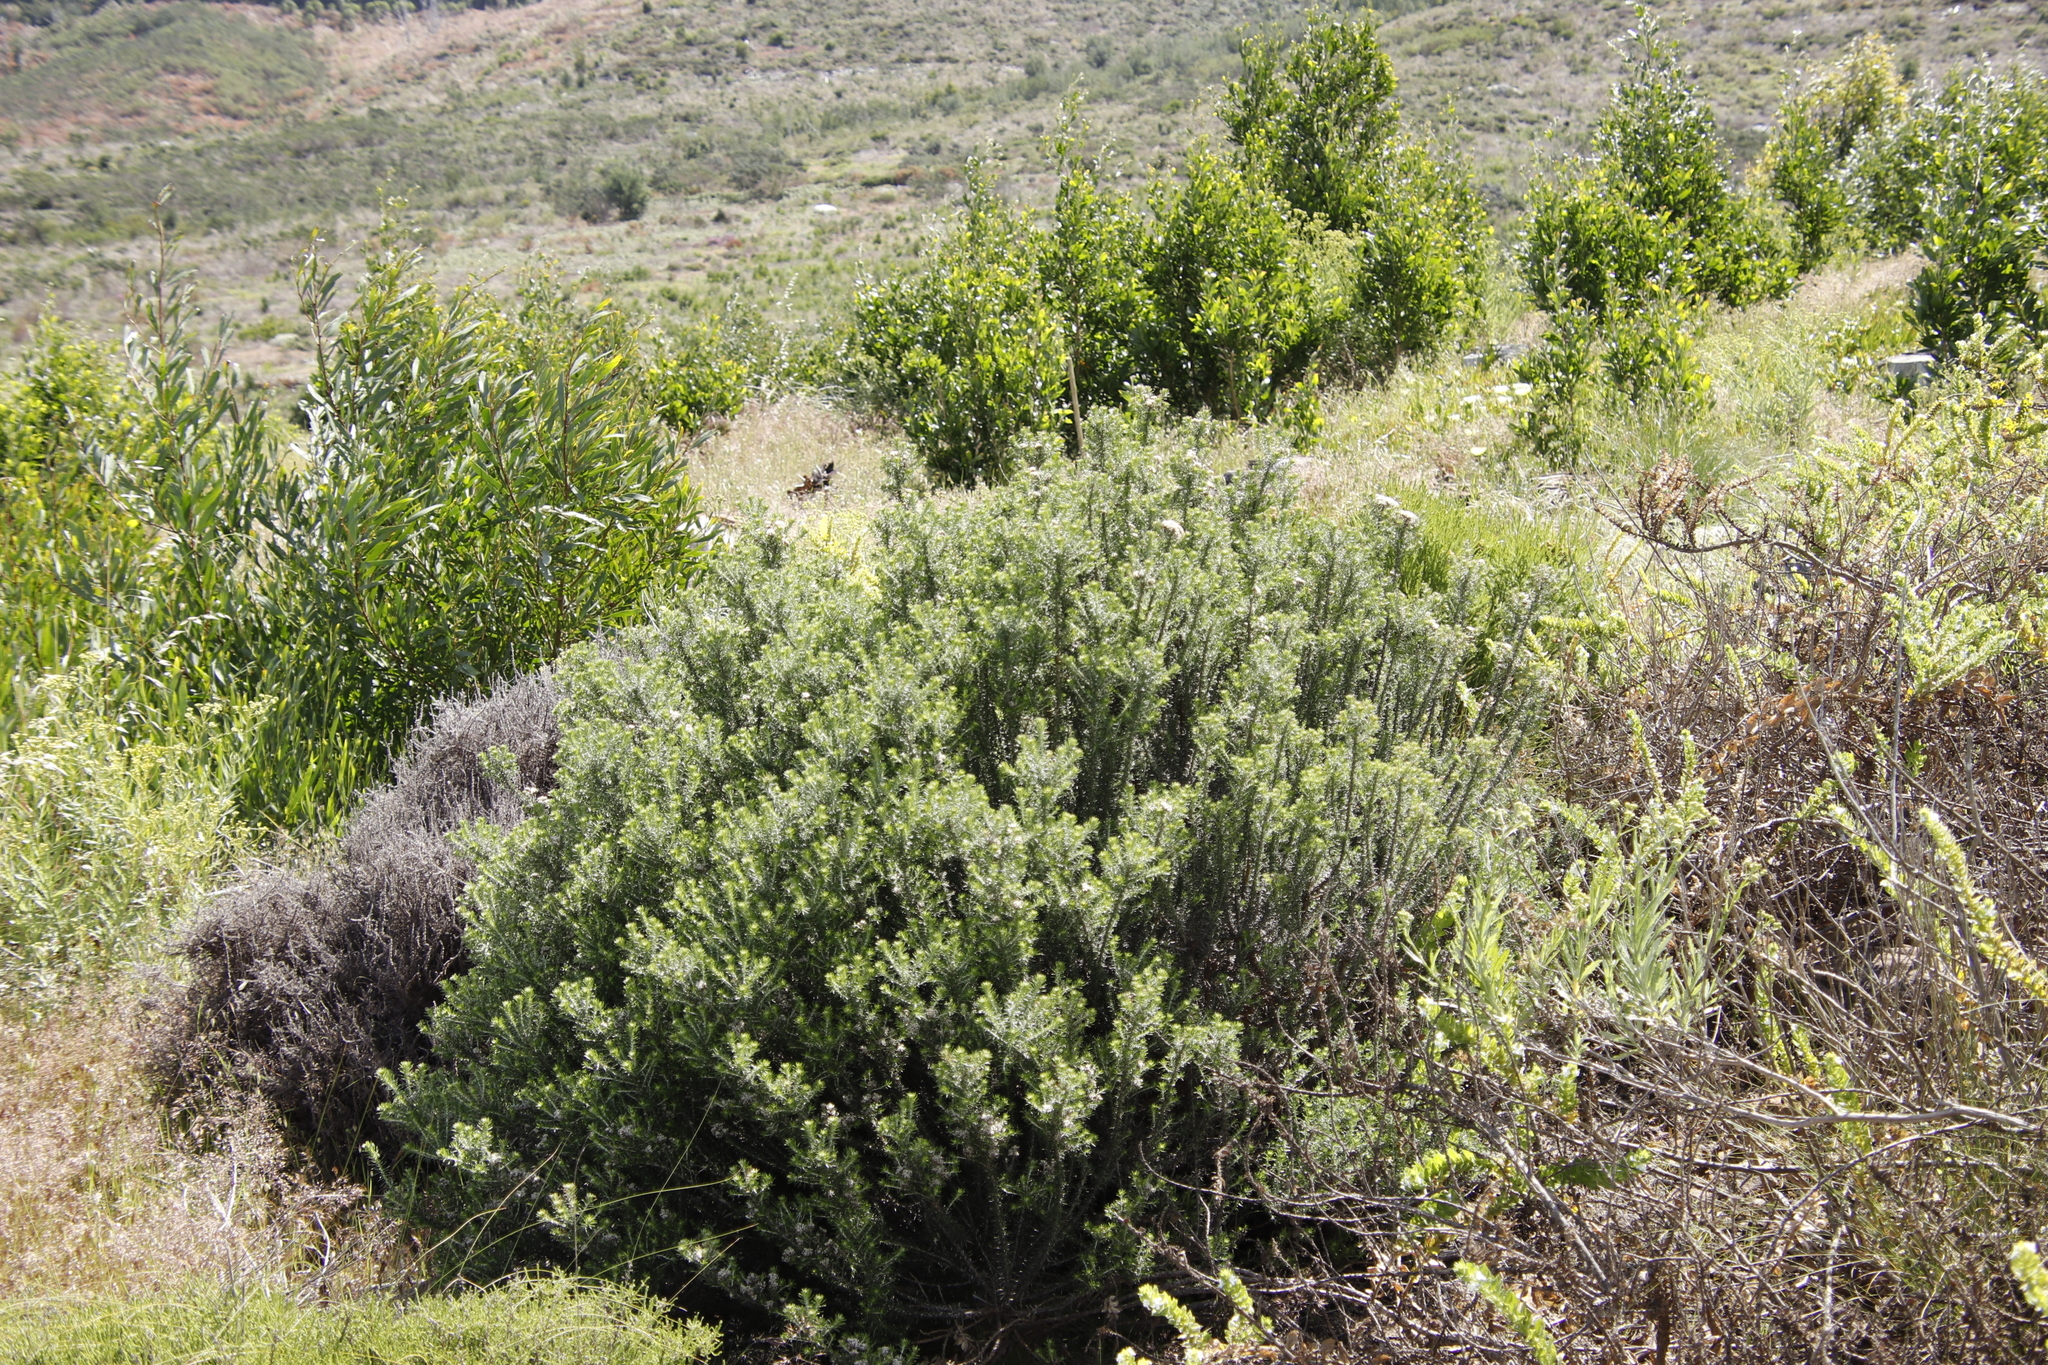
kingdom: Plantae
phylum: Tracheophyta
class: Magnoliopsida
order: Asterales
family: Asteraceae
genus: Metalasia
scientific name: Metalasia densa
